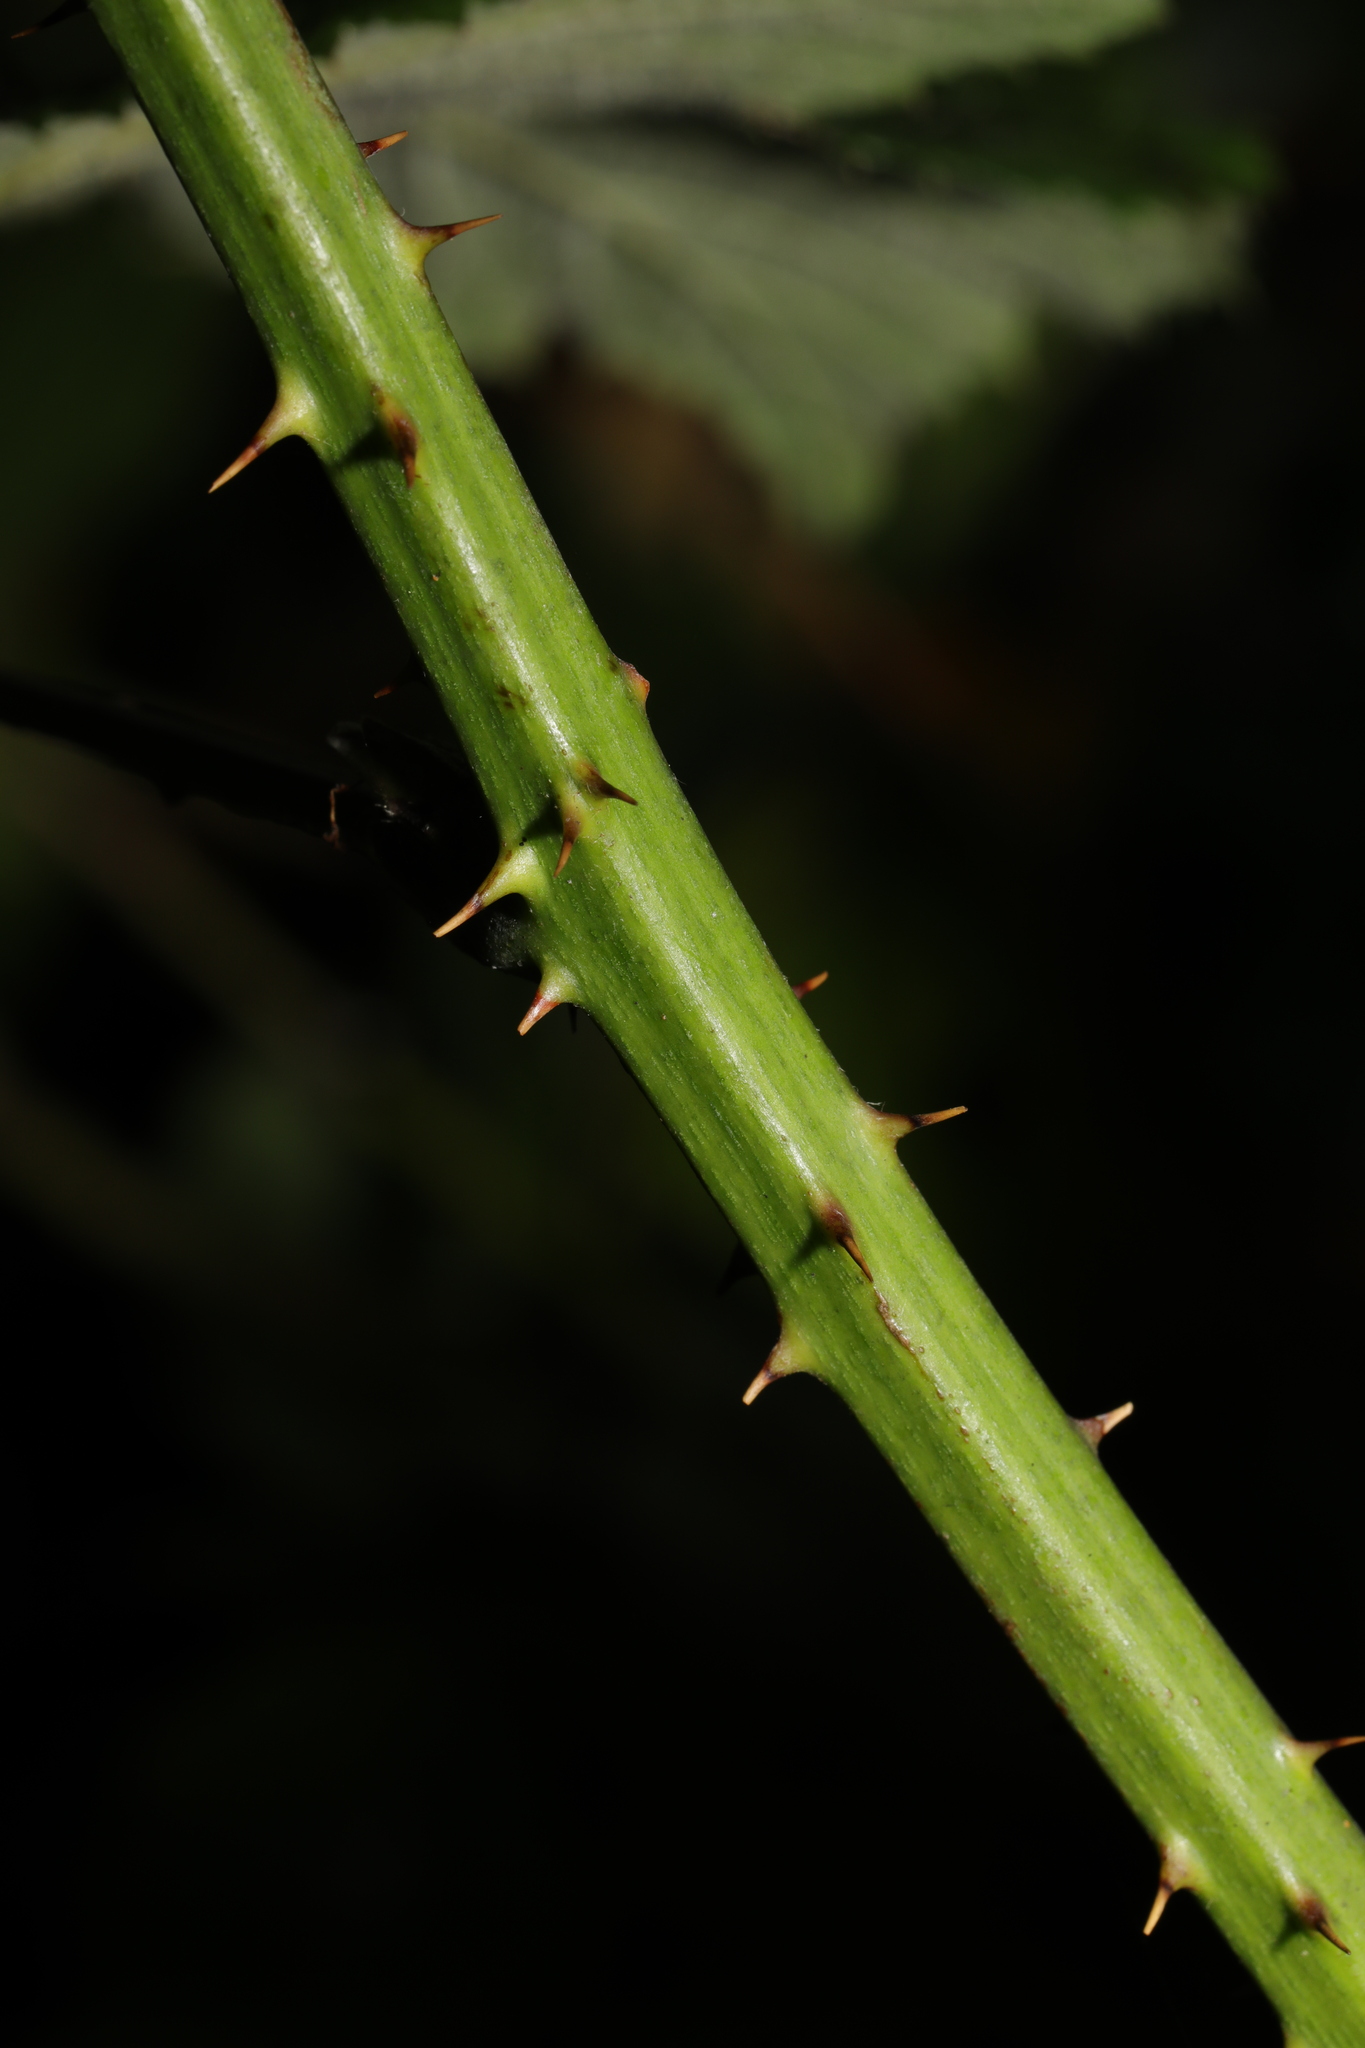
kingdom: Plantae
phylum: Tracheophyta
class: Magnoliopsida
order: Rosales
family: Rosaceae
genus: Rubus
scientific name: Rubus armeniacus
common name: Himalayan blackberry
